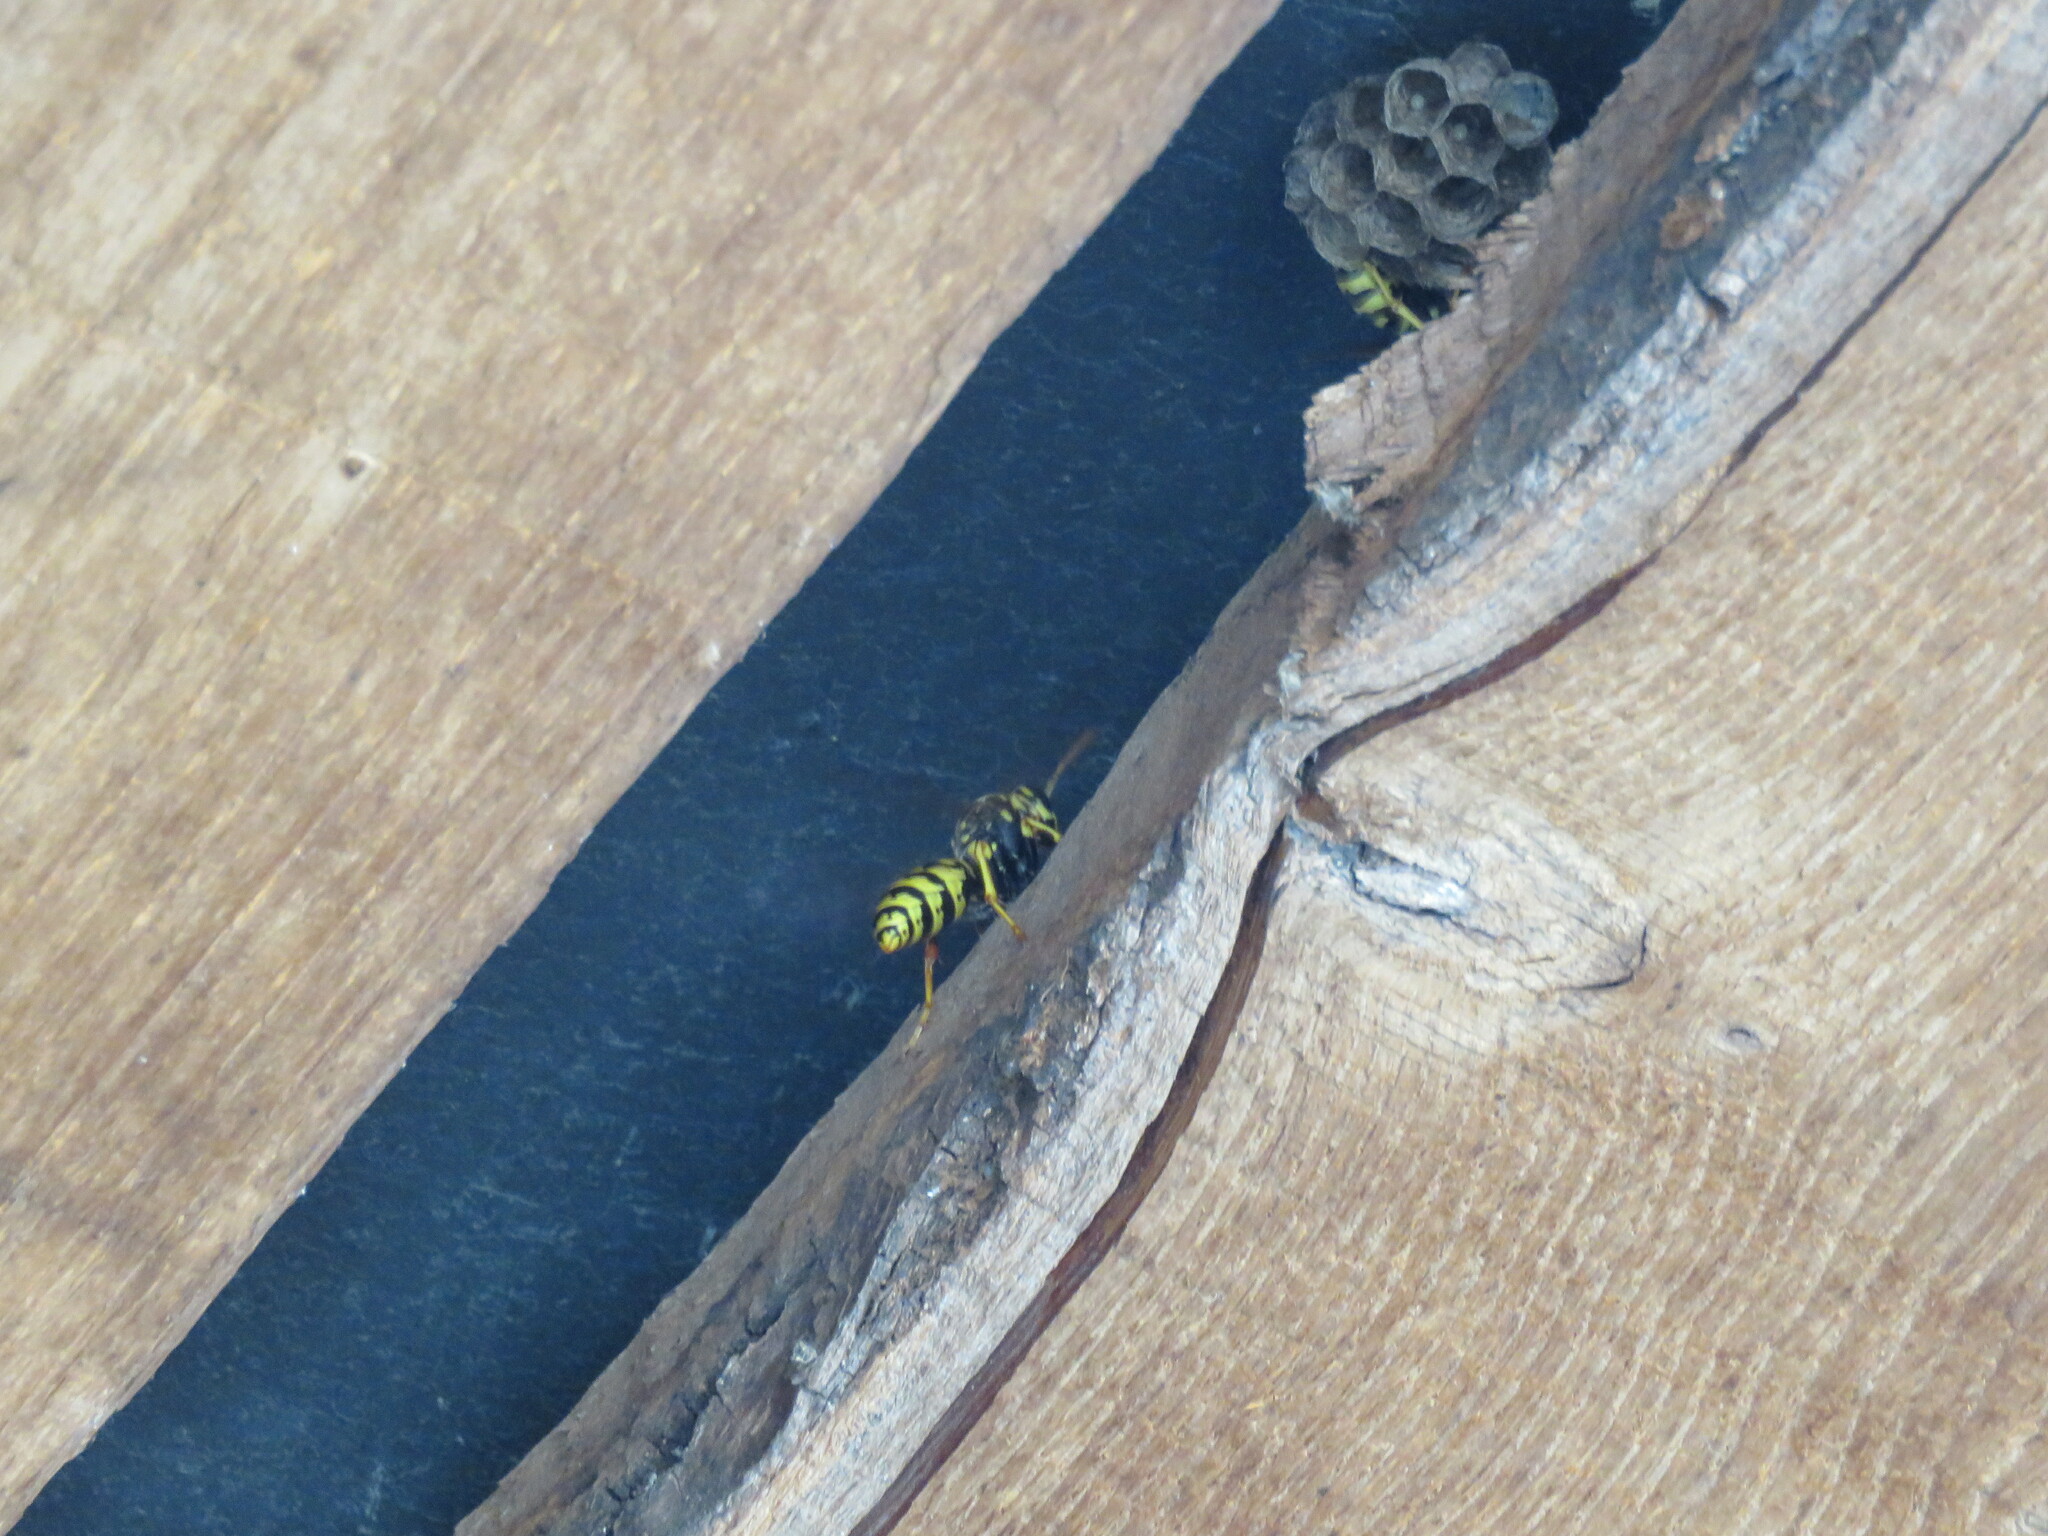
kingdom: Animalia
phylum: Arthropoda
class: Insecta
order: Hymenoptera
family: Eumenidae
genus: Polistes
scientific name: Polistes dominula
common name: Paper wasp
